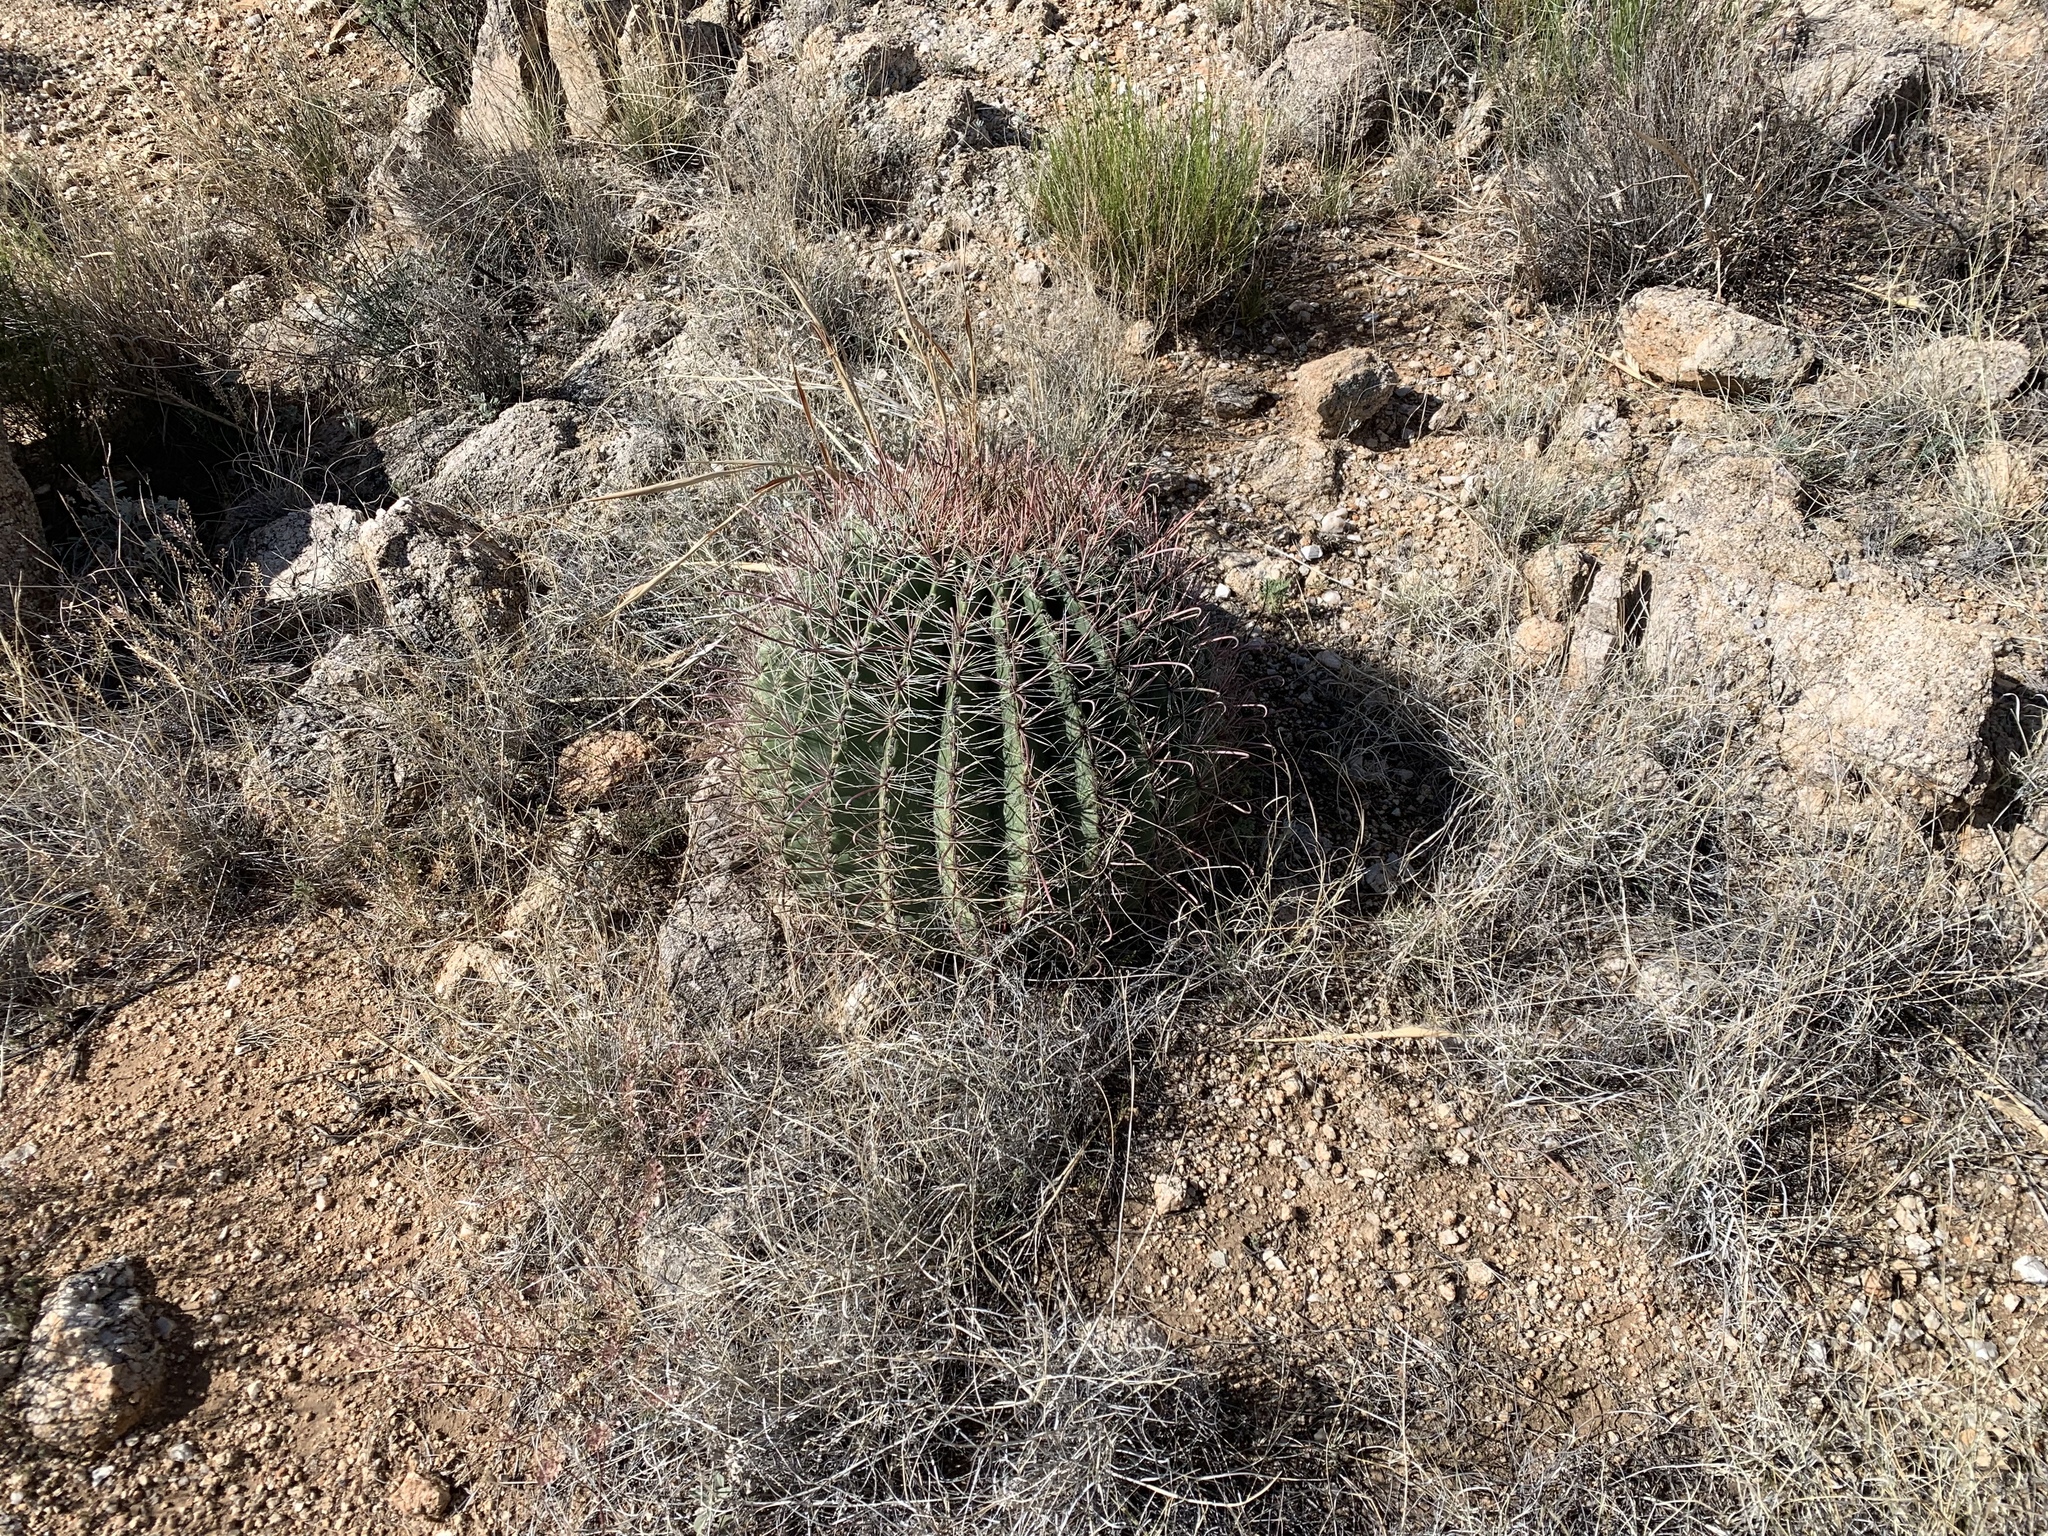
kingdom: Plantae
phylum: Tracheophyta
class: Magnoliopsida
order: Caryophyllales
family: Cactaceae
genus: Ferocactus
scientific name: Ferocactus wislizeni
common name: Candy barrel cactus
